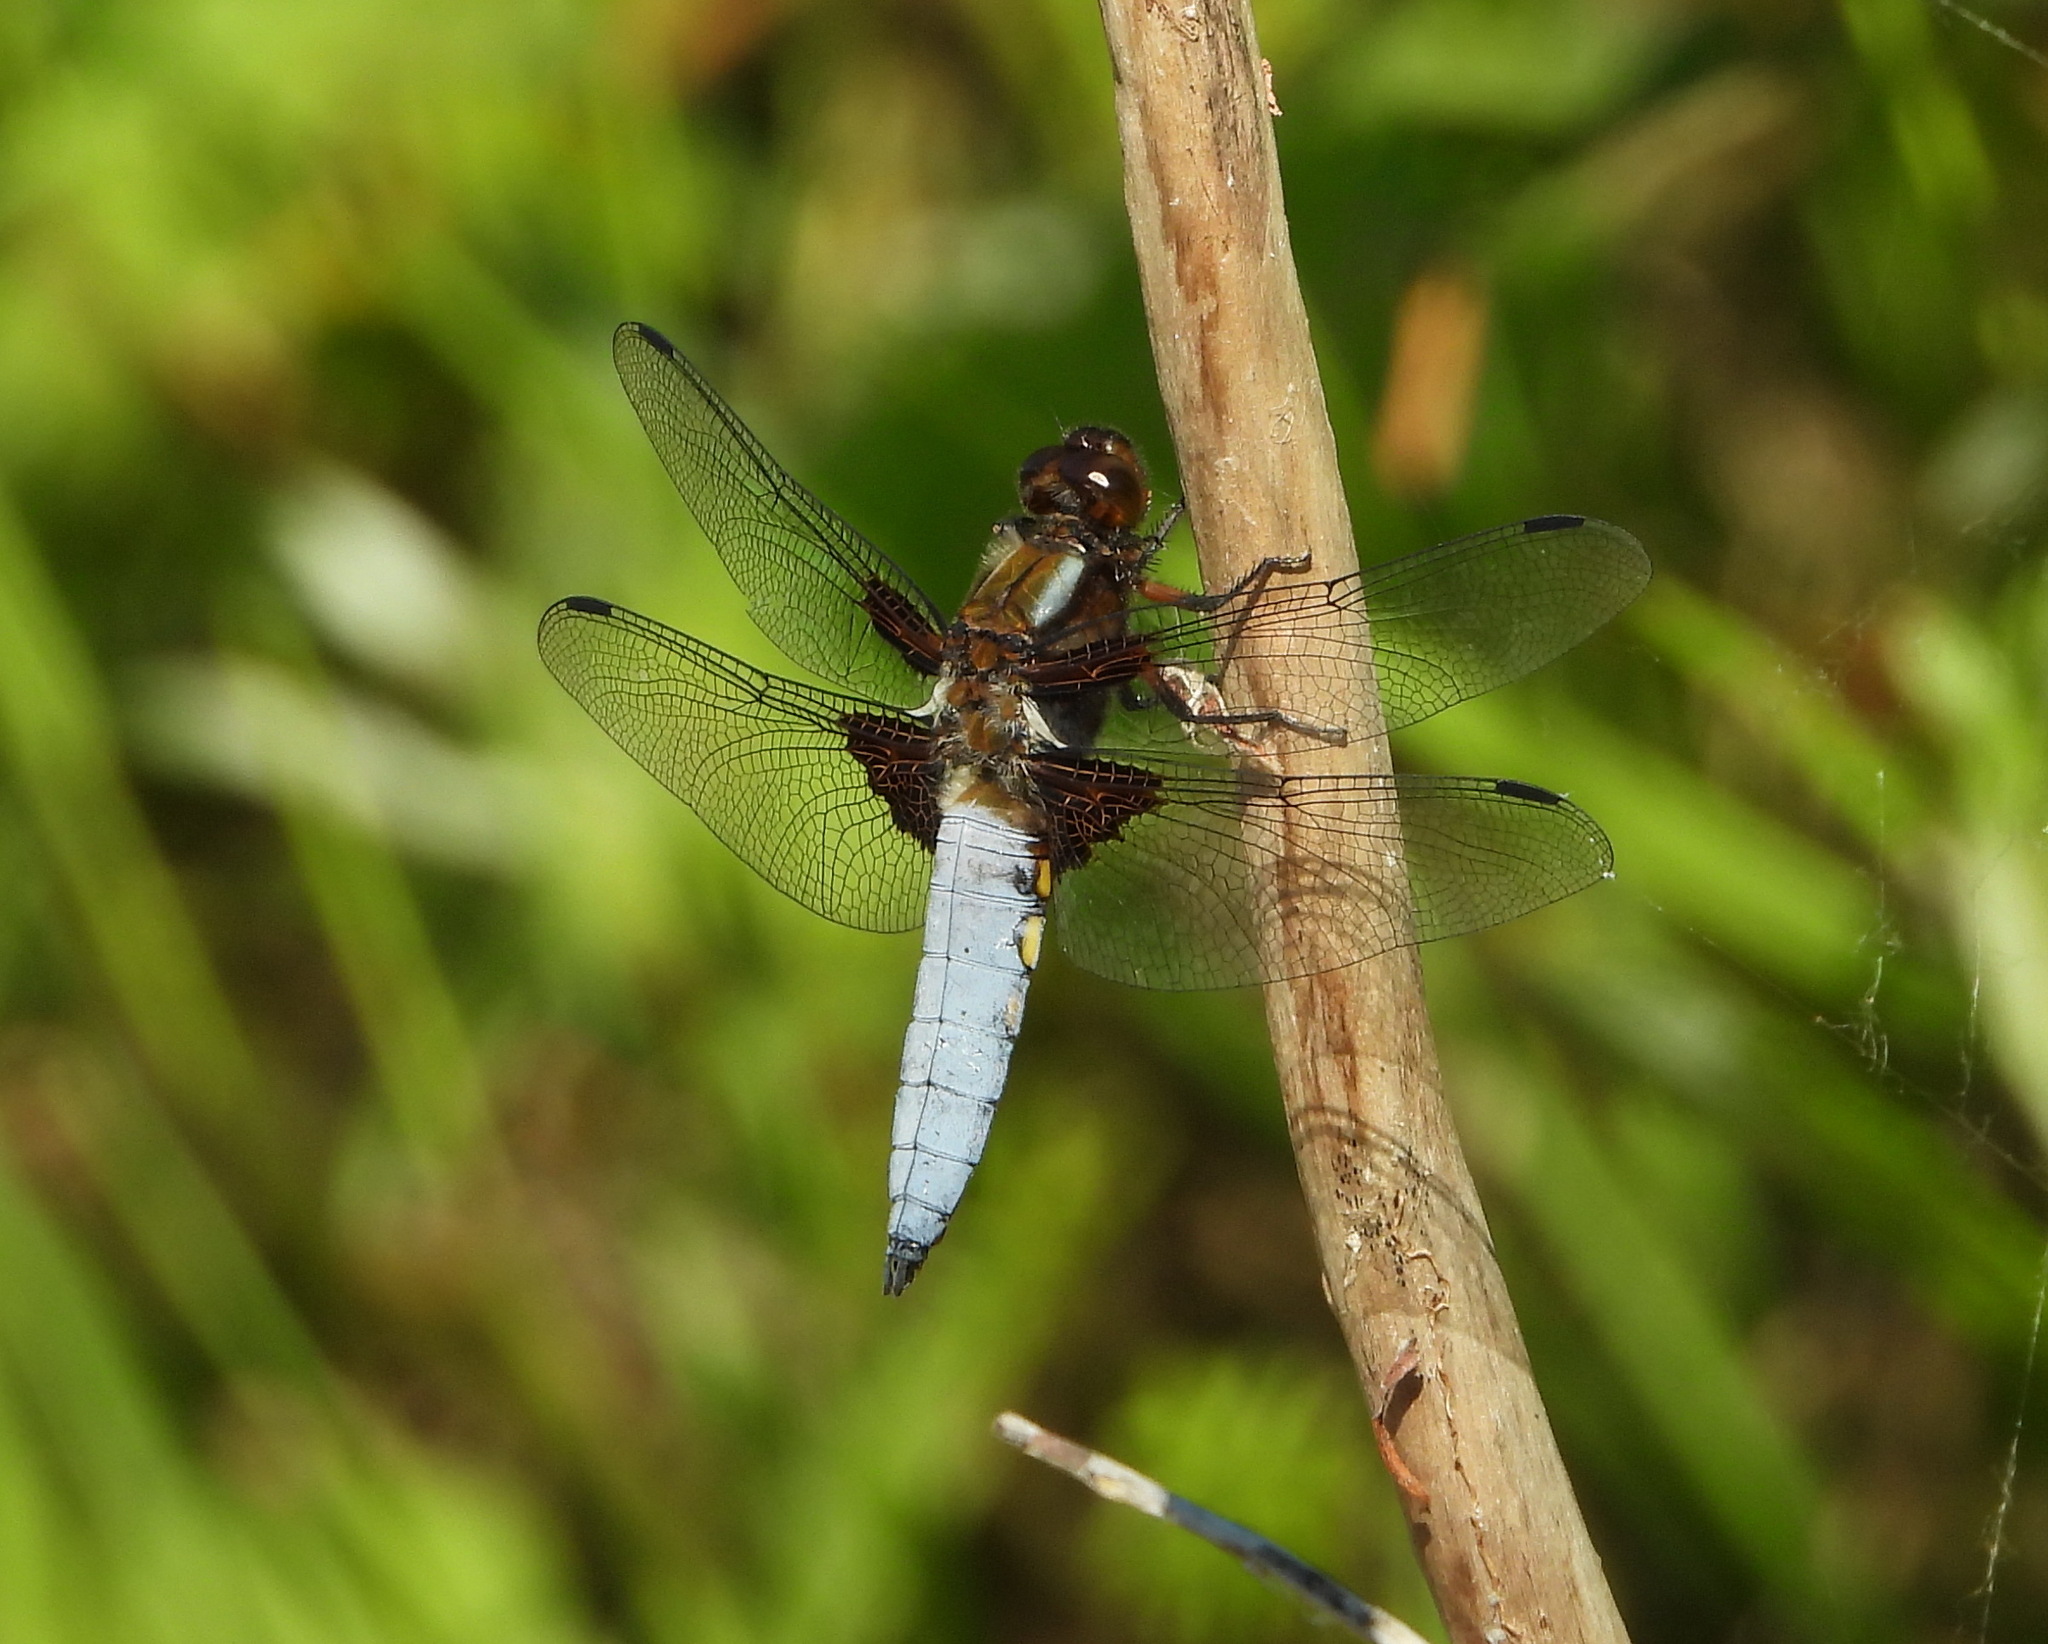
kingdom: Animalia
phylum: Arthropoda
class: Insecta
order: Odonata
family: Libellulidae
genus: Libellula
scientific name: Libellula depressa
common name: Broad-bodied chaser
